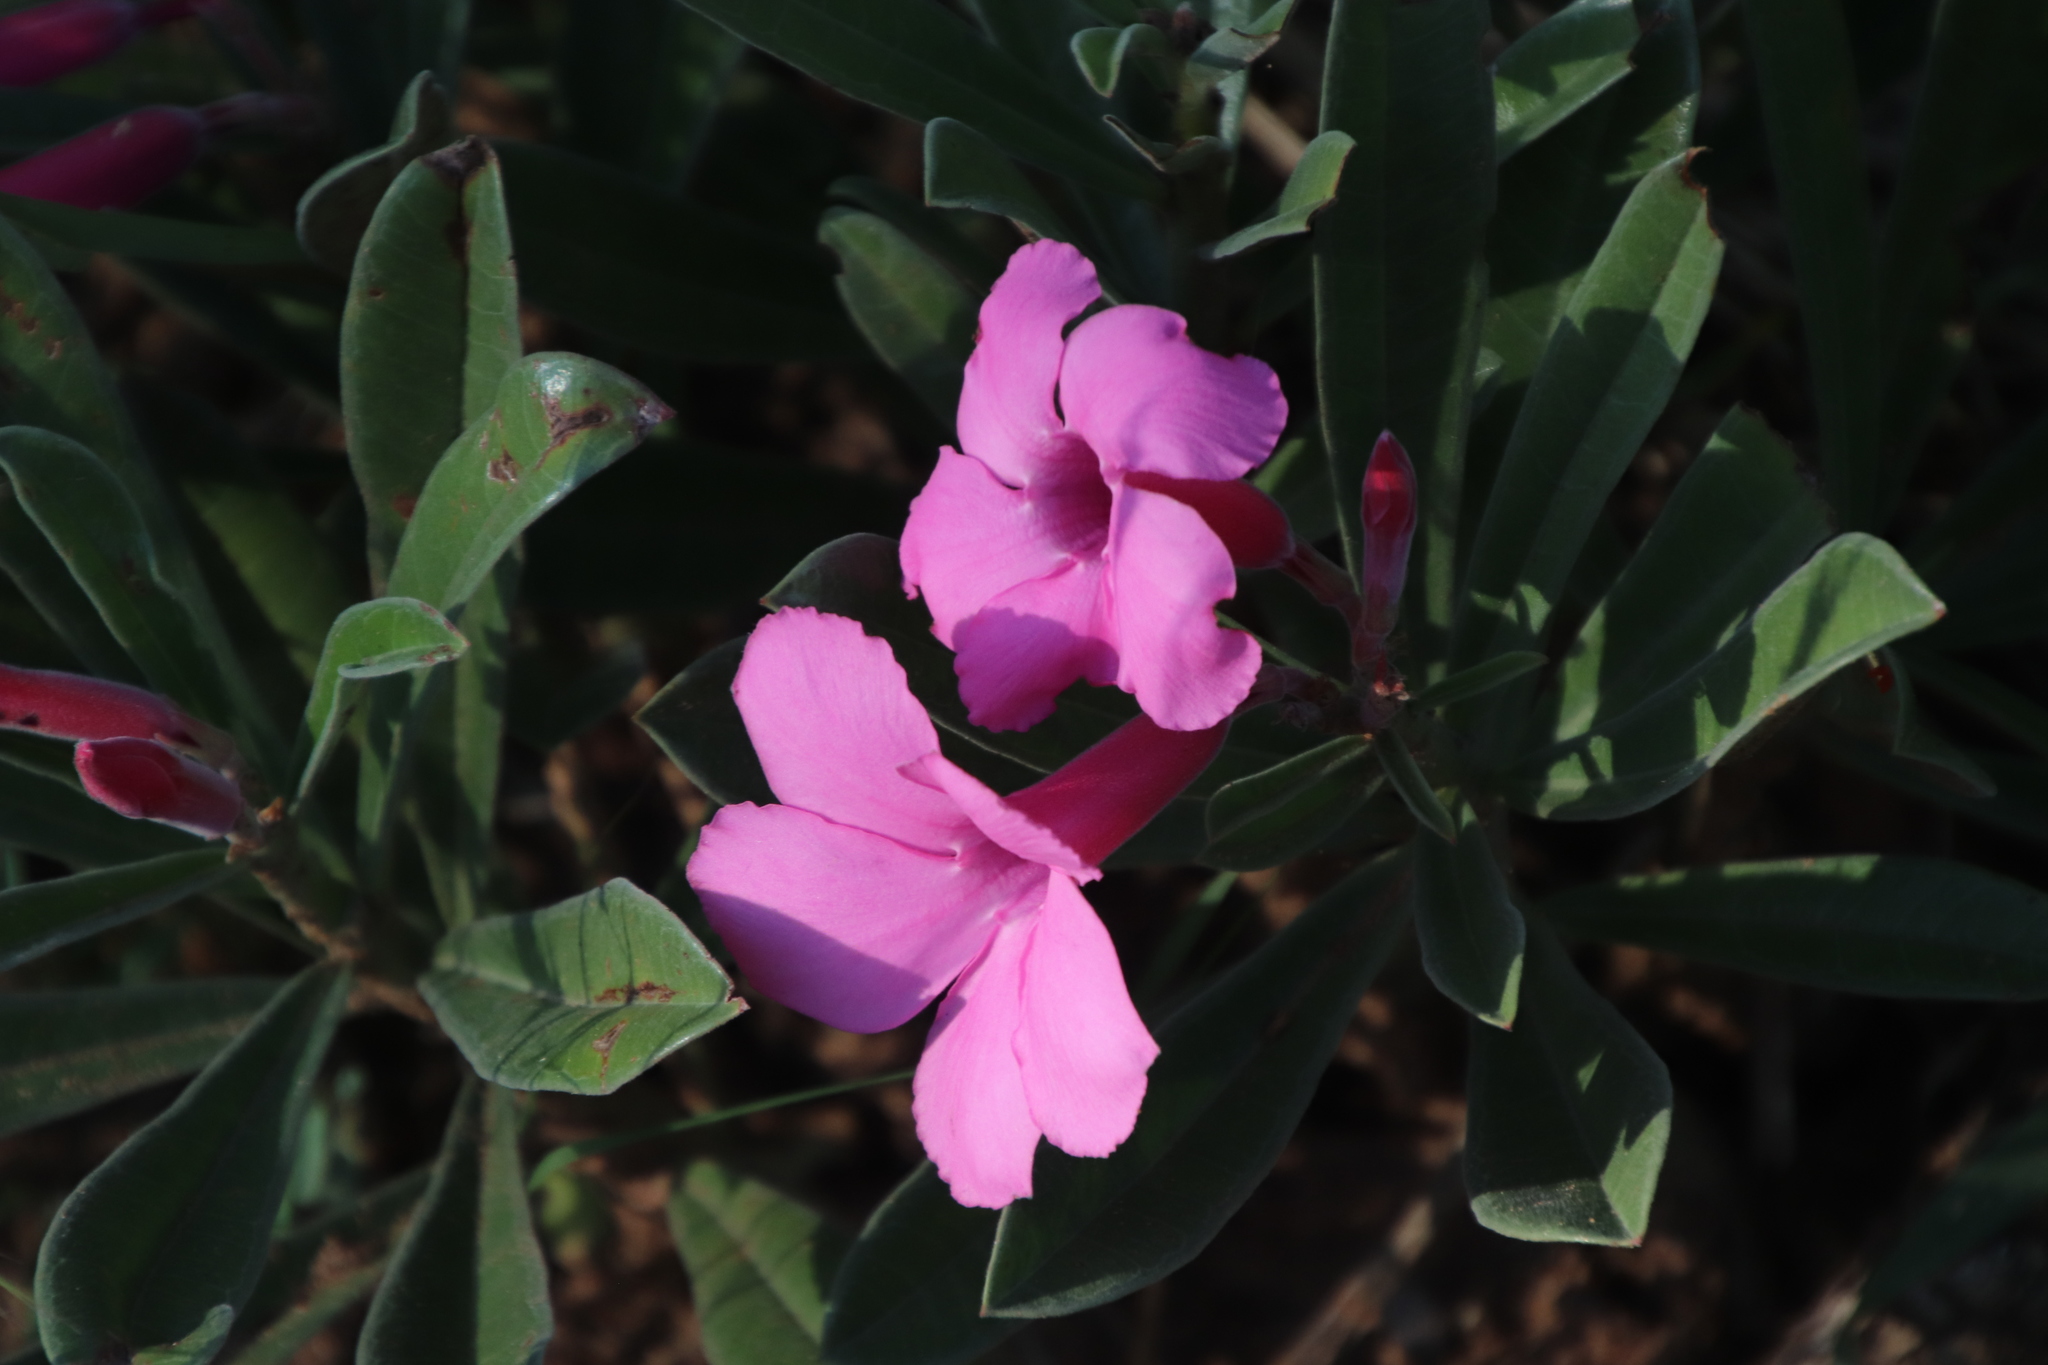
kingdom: Plantae
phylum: Tracheophyta
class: Magnoliopsida
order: Gentianales
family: Apocynaceae
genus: Adenium
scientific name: Adenium obesum
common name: Desert-rose
